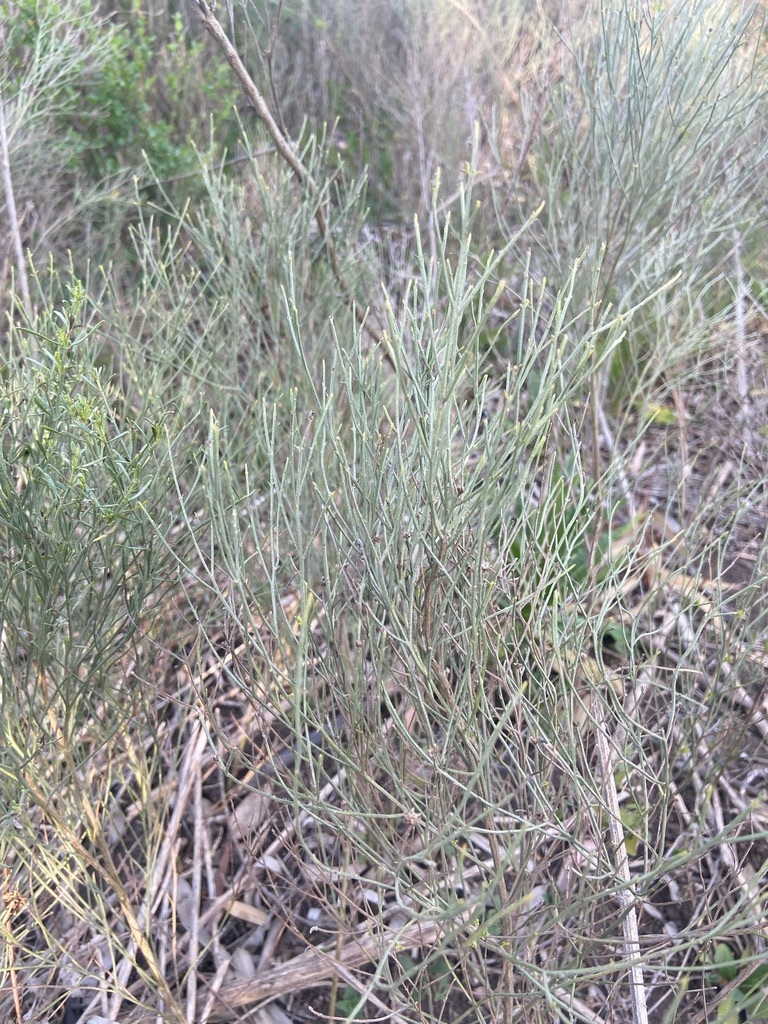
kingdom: Plantae
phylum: Tracheophyta
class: Magnoliopsida
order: Asterales
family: Asteraceae
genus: Baccharis
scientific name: Baccharis notosergila
